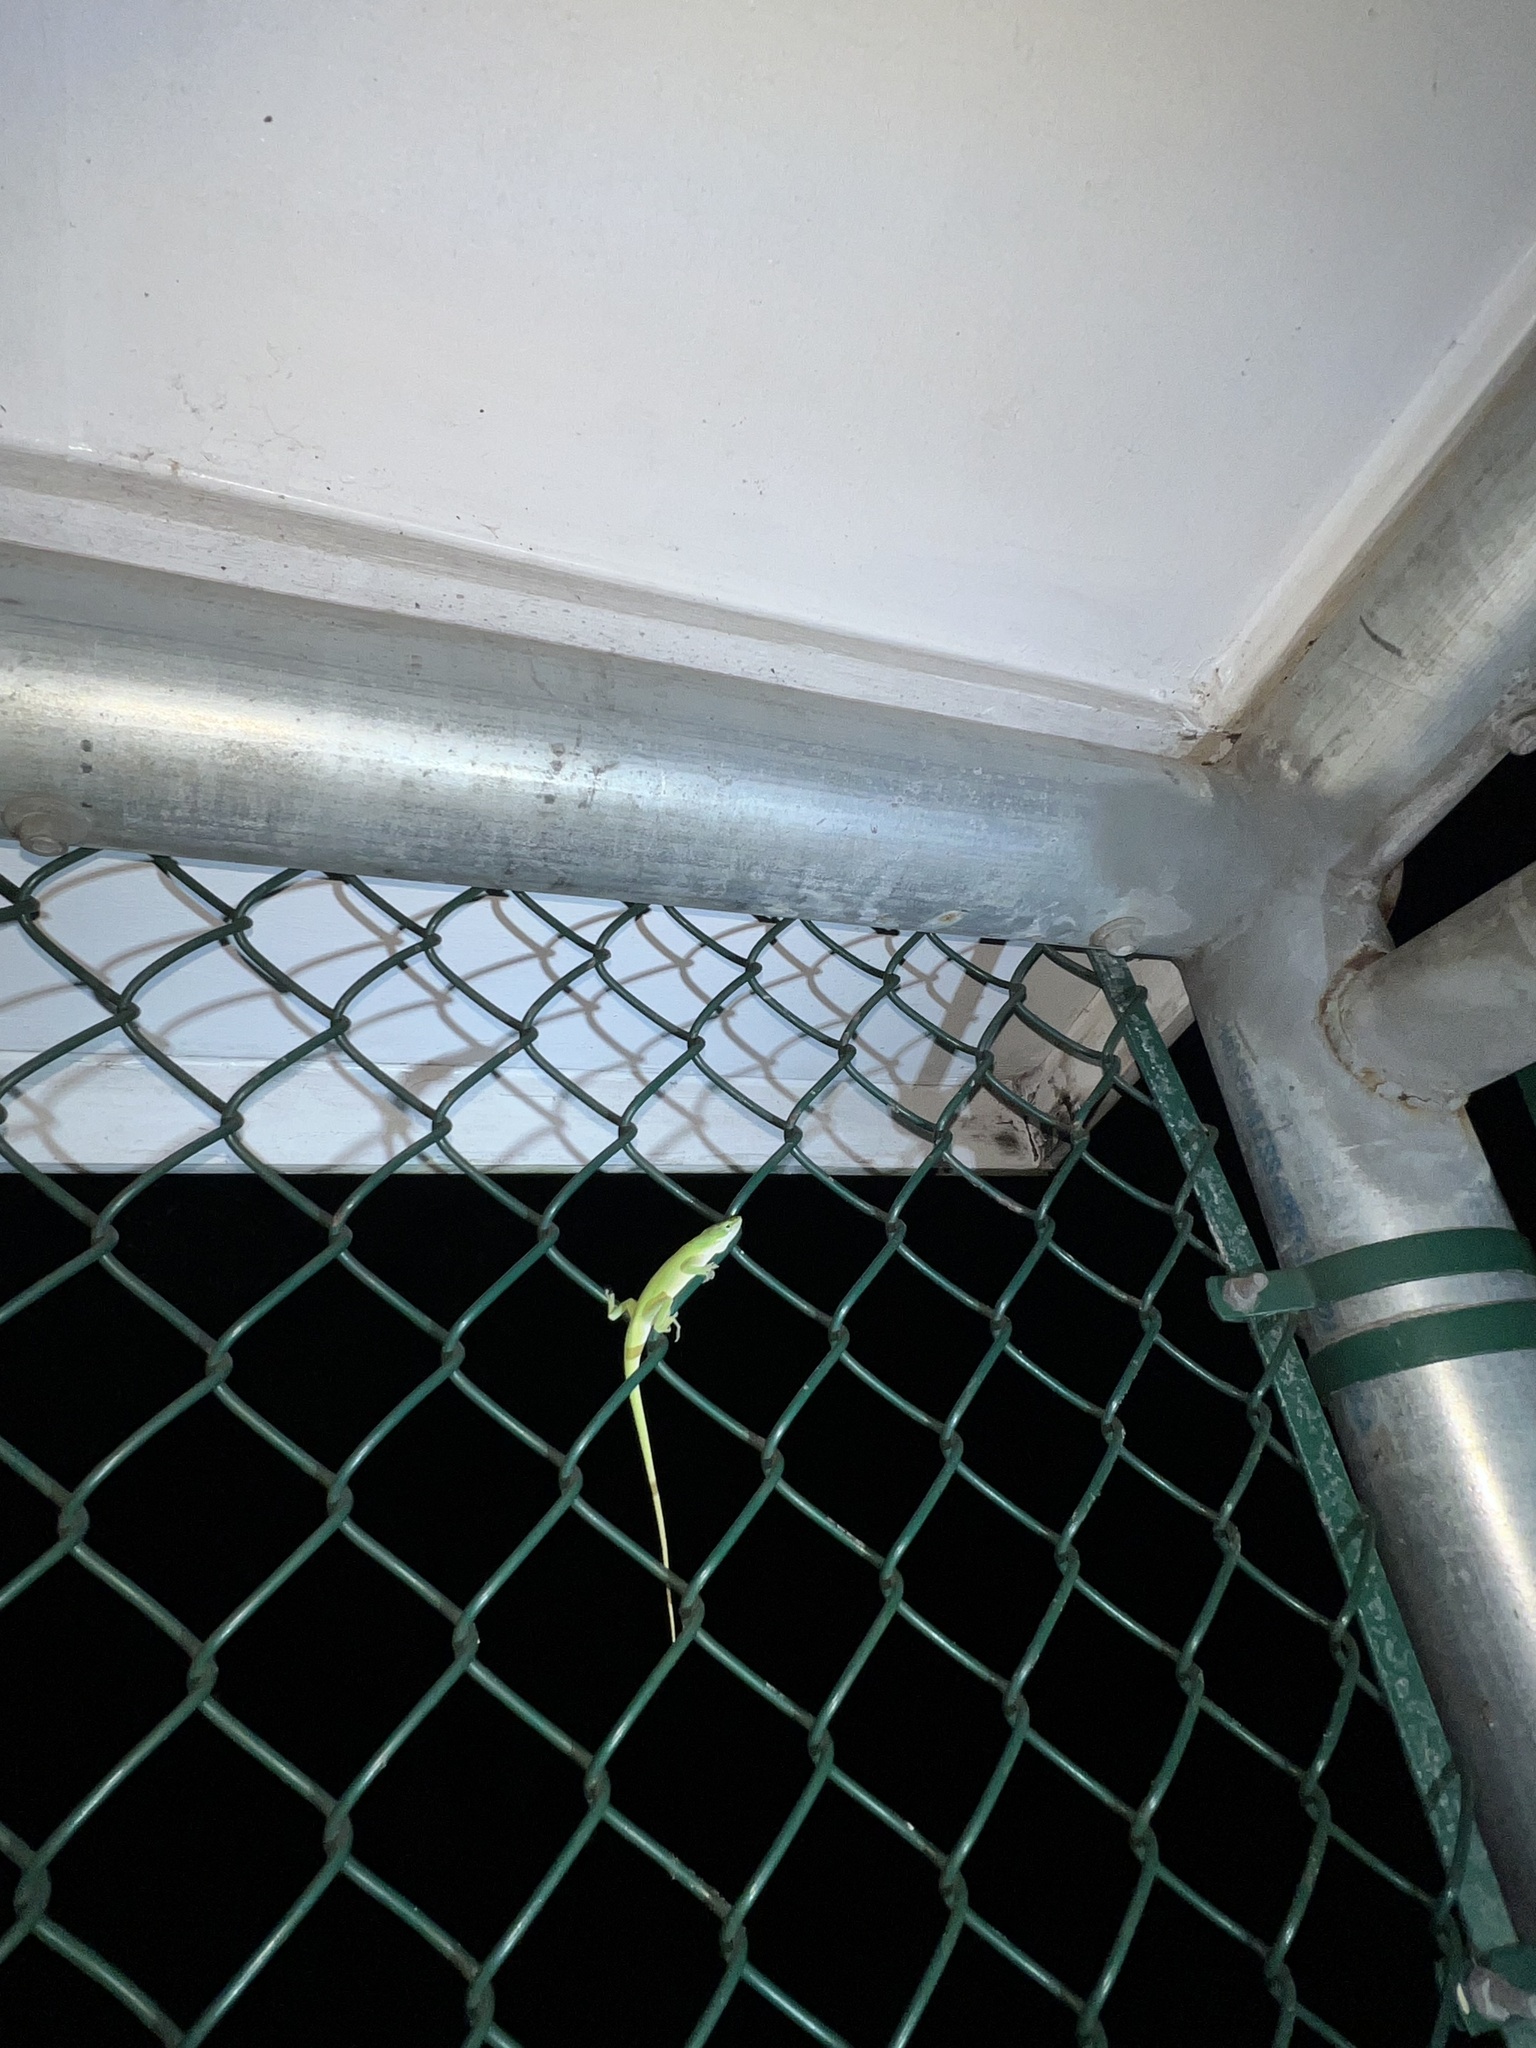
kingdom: Animalia
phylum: Chordata
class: Squamata
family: Dactyloidae
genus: Anolis
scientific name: Anolis carolinensis
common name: Green anole
